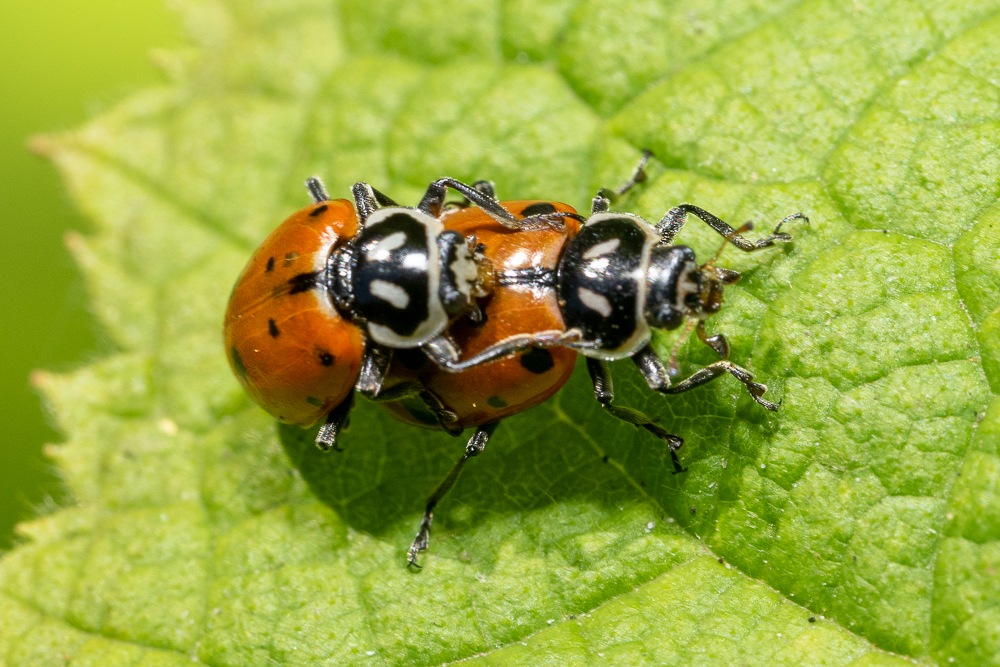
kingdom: Animalia
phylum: Arthropoda
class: Insecta
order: Coleoptera
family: Coccinellidae
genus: Hippodamia
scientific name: Hippodamia convergens
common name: Convergent lady beetle
